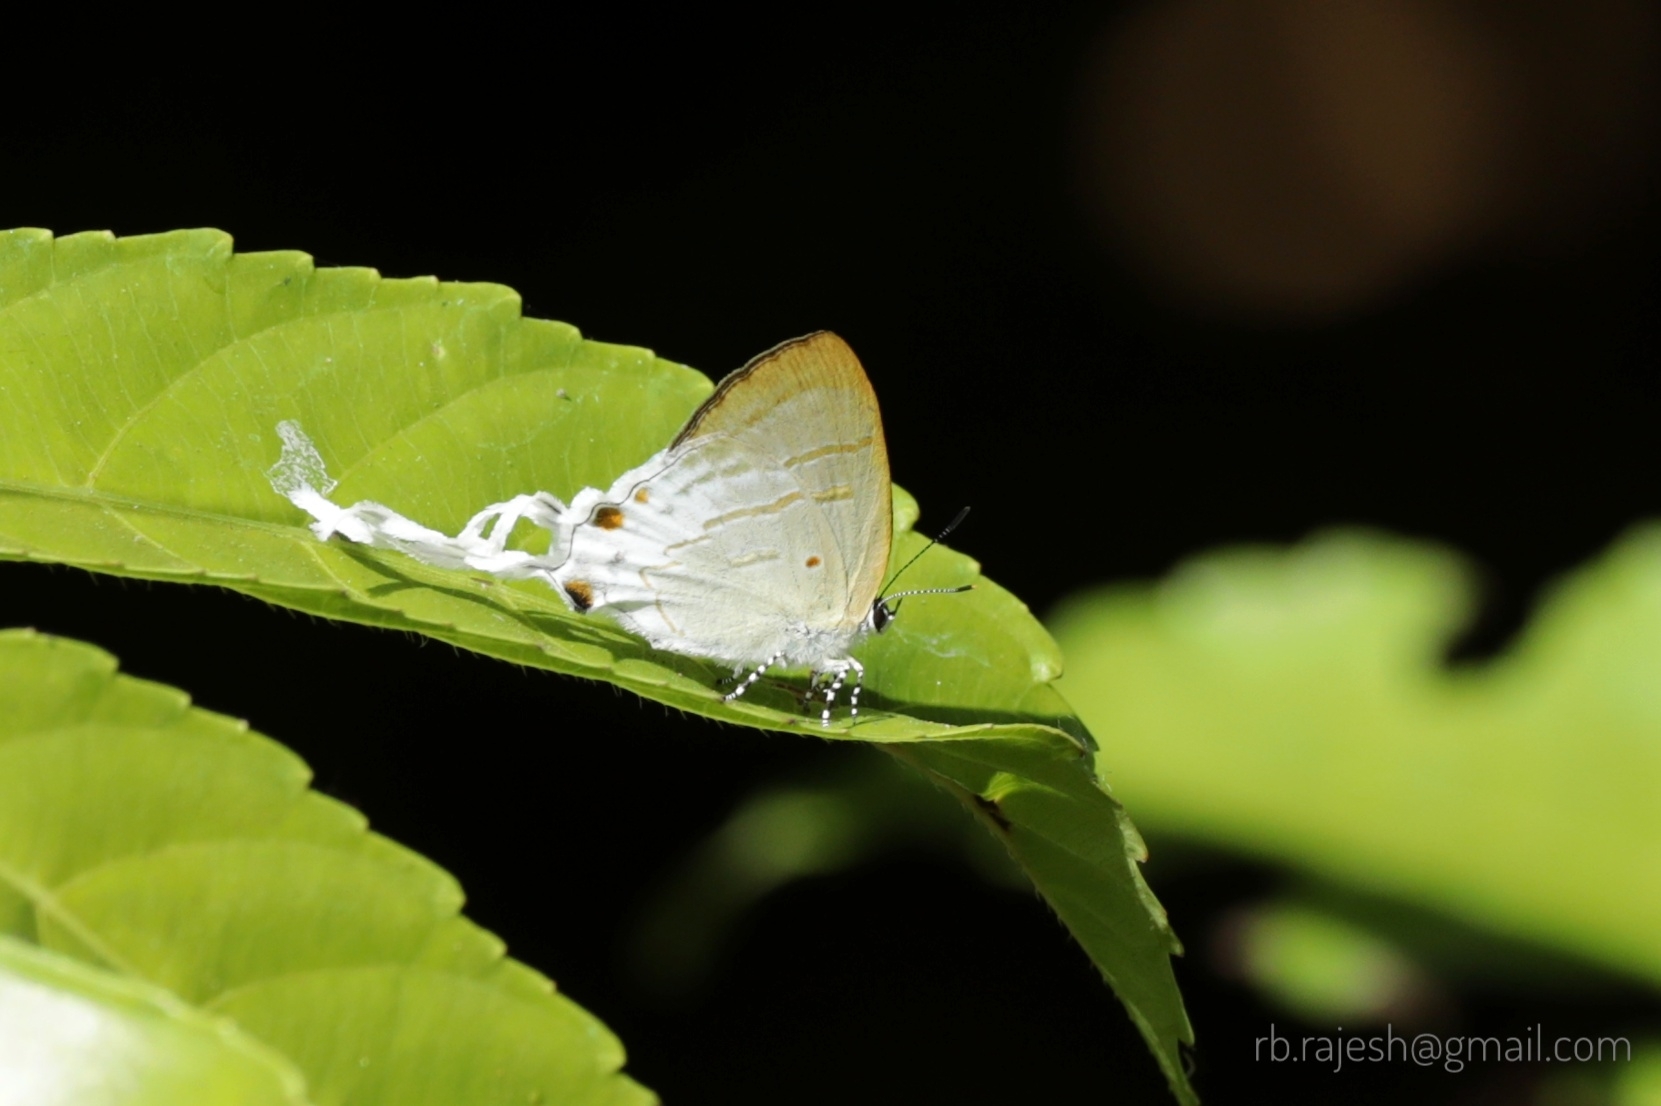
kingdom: Animalia
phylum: Arthropoda
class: Insecta
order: Lepidoptera
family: Lycaenidae
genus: Zeltus
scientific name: Zeltus amasa
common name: Fluffy tit
